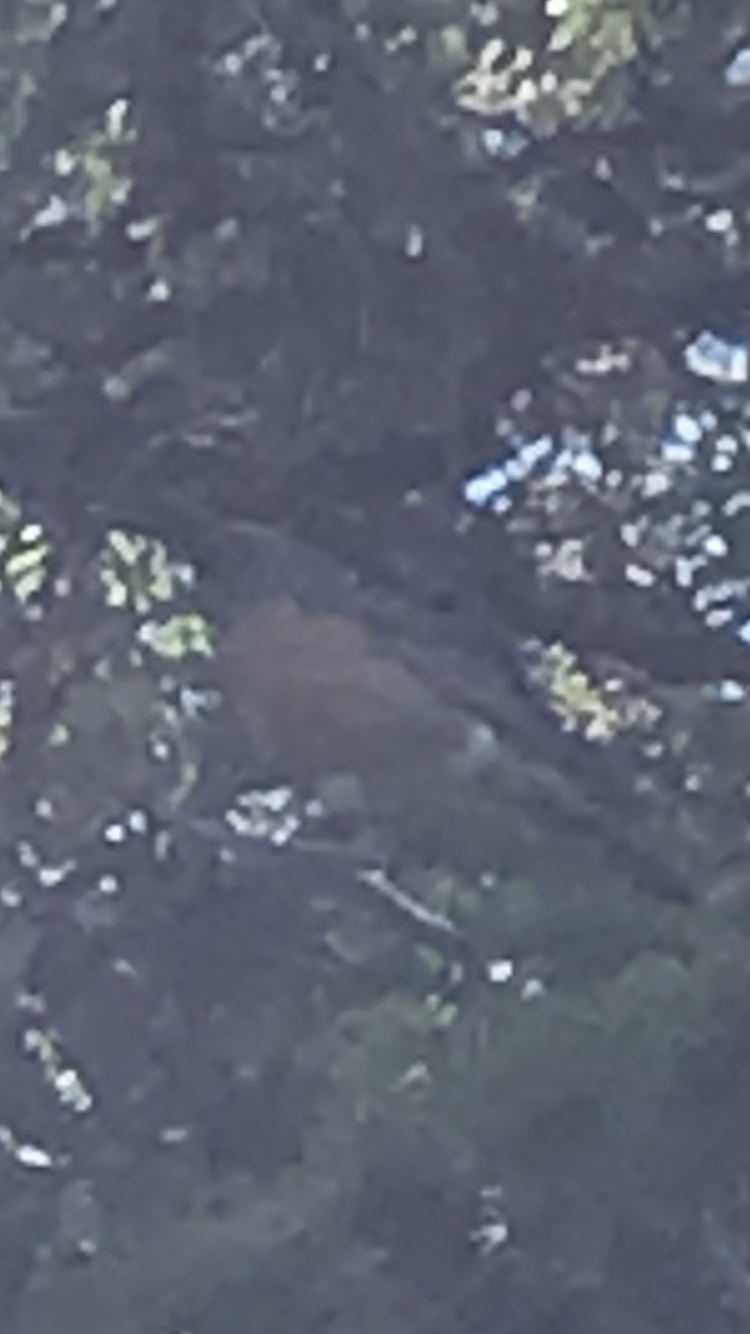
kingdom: Animalia
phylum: Chordata
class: Aves
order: Passeriformes
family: Turdidae
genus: Turdus
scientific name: Turdus migratorius
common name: American robin
